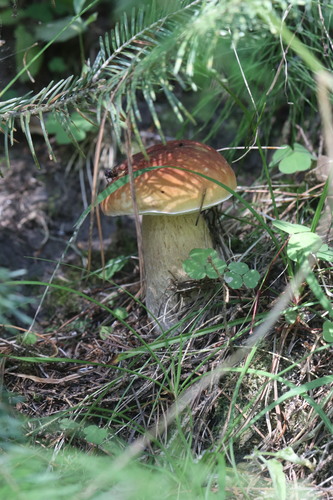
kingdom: Fungi
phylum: Basidiomycota
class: Agaricomycetes
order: Boletales
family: Boletaceae
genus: Boletus
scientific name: Boletus edulis
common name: Cep
